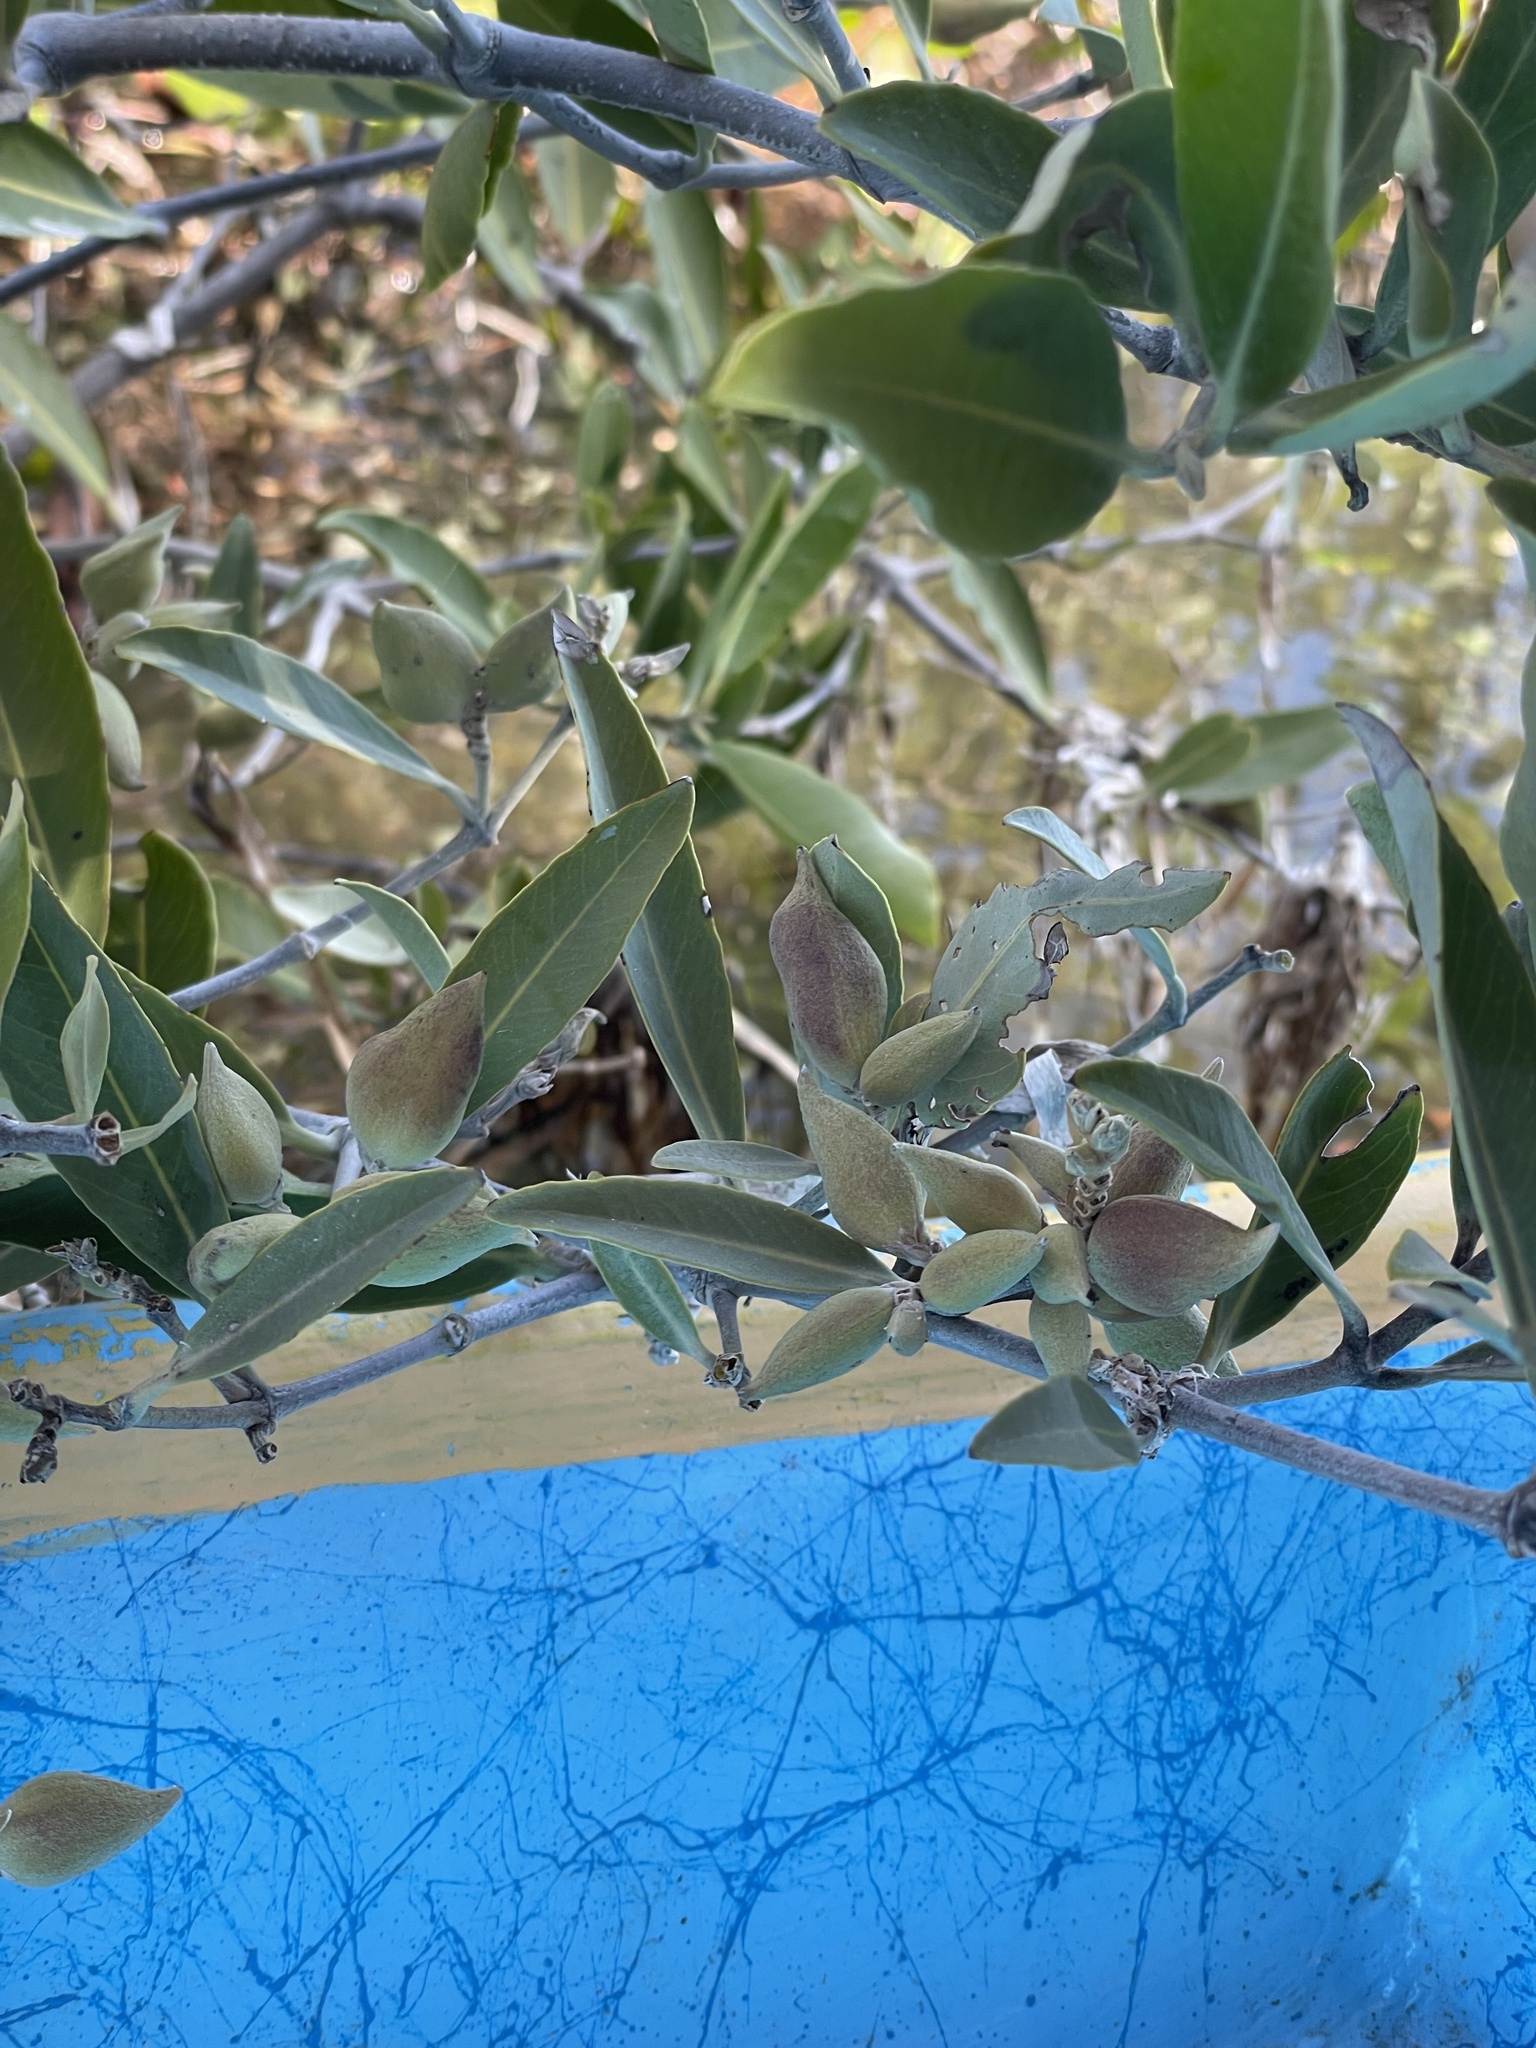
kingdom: Plantae
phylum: Tracheophyta
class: Magnoliopsida
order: Lamiales
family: Acanthaceae
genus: Avicennia
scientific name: Avicennia germinans
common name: Black mangrove
